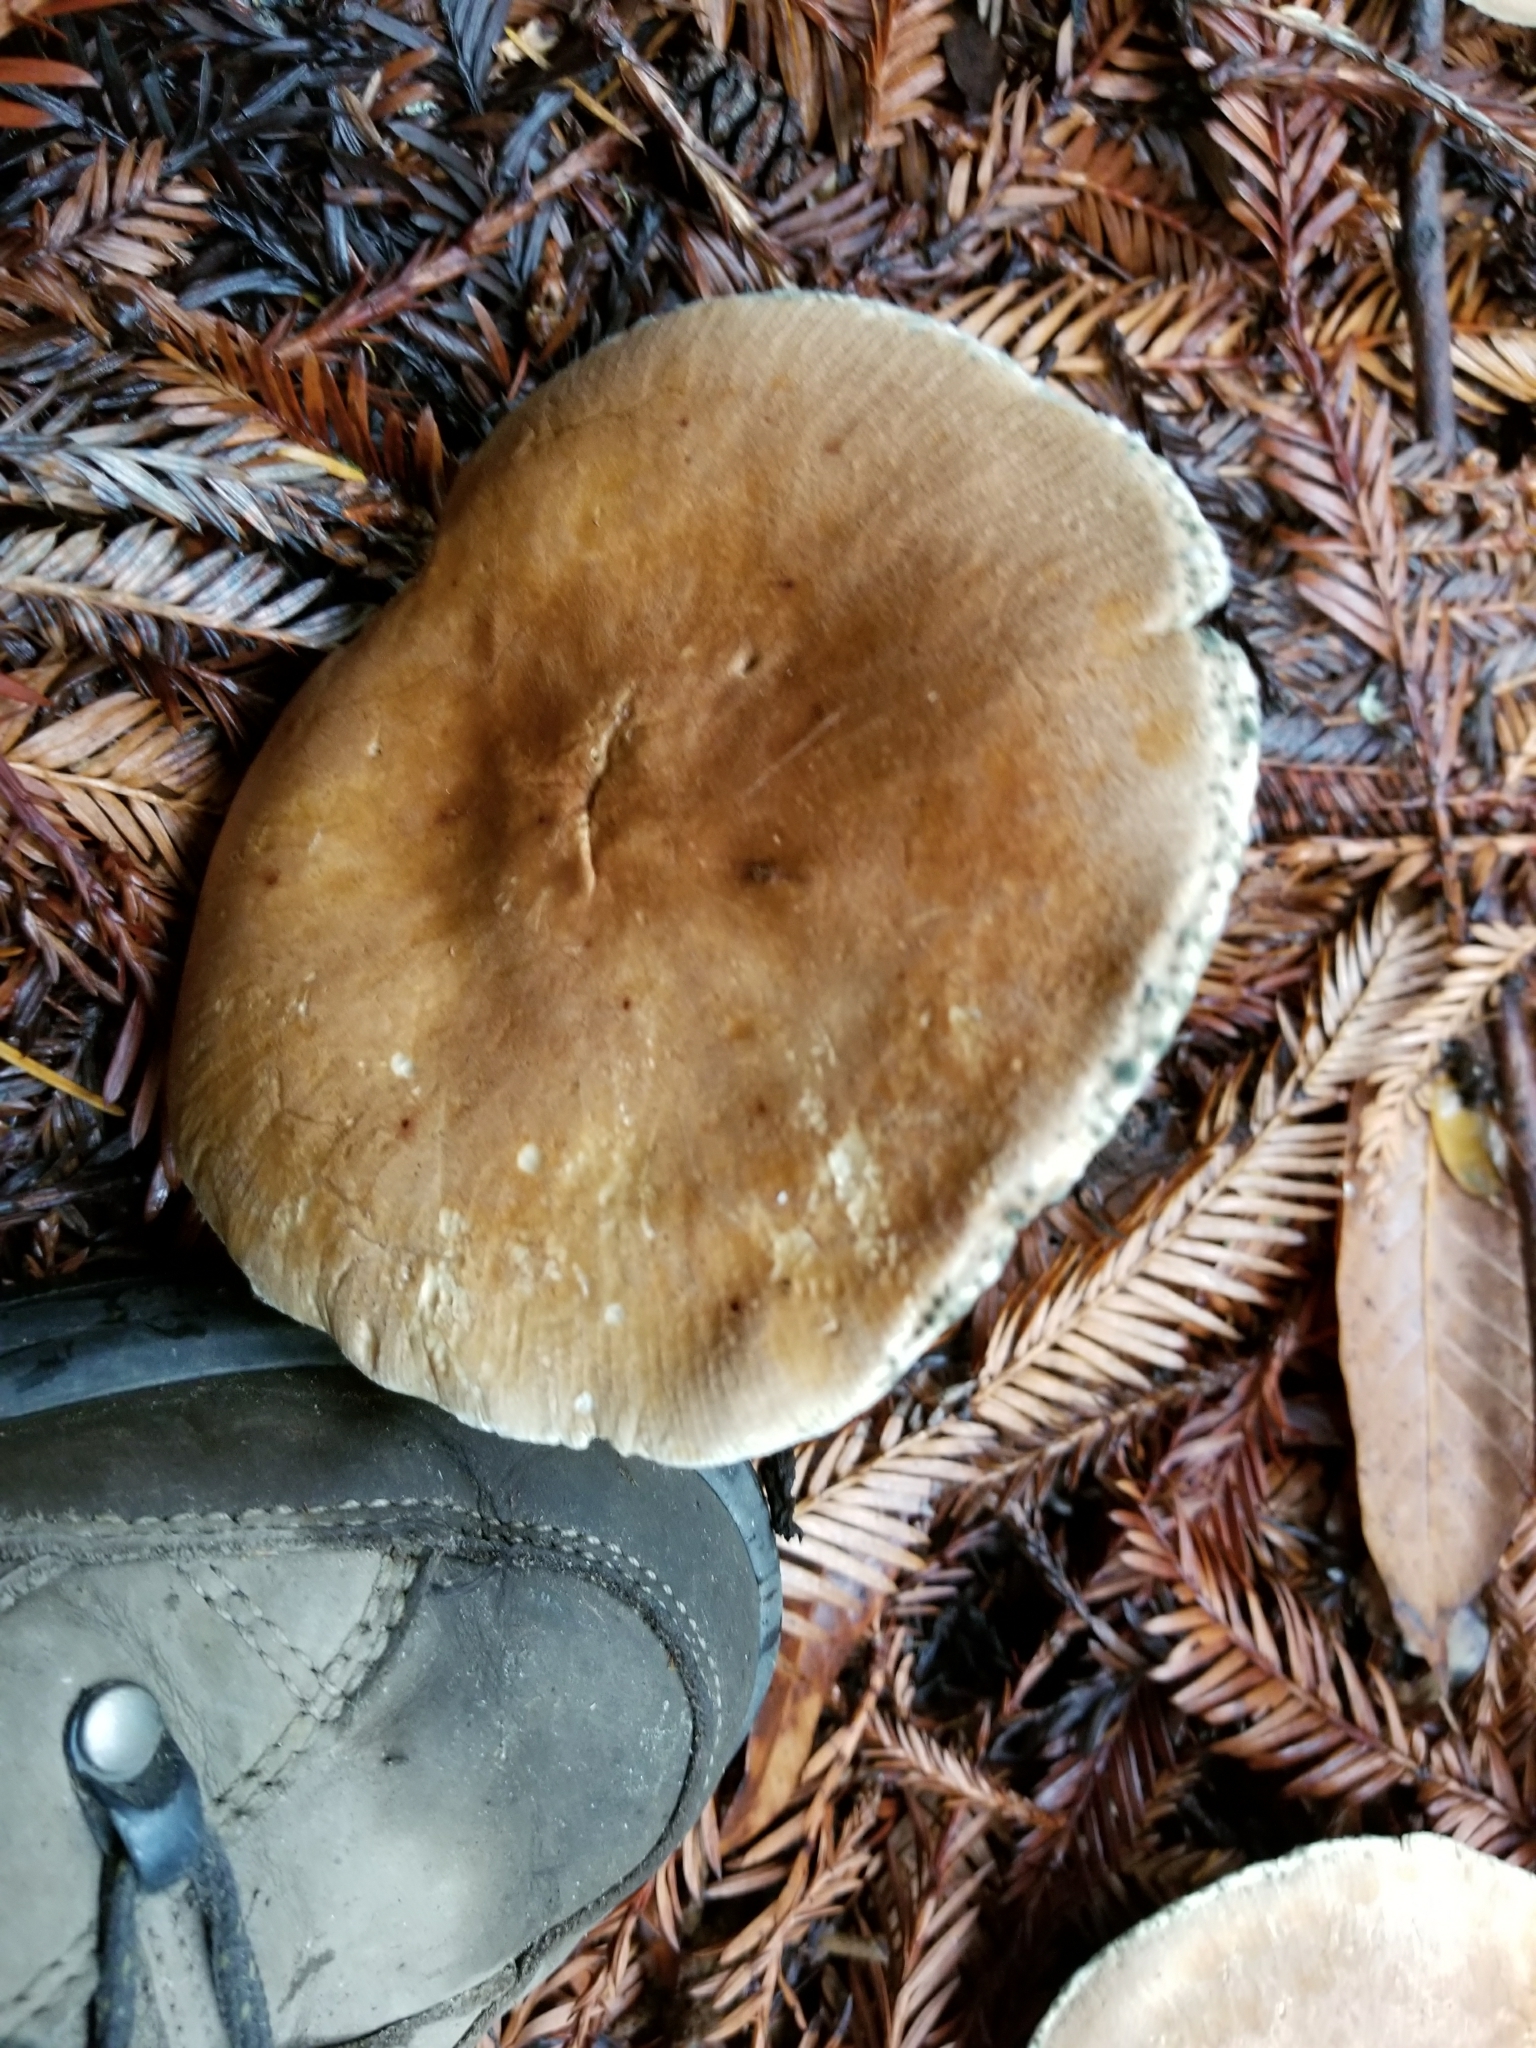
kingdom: Fungi
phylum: Basidiomycota
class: Agaricomycetes
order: Agaricales
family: Tricholomataceae
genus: Leucopaxillus
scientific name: Leucopaxillus gentianeus
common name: Bitter funnel
